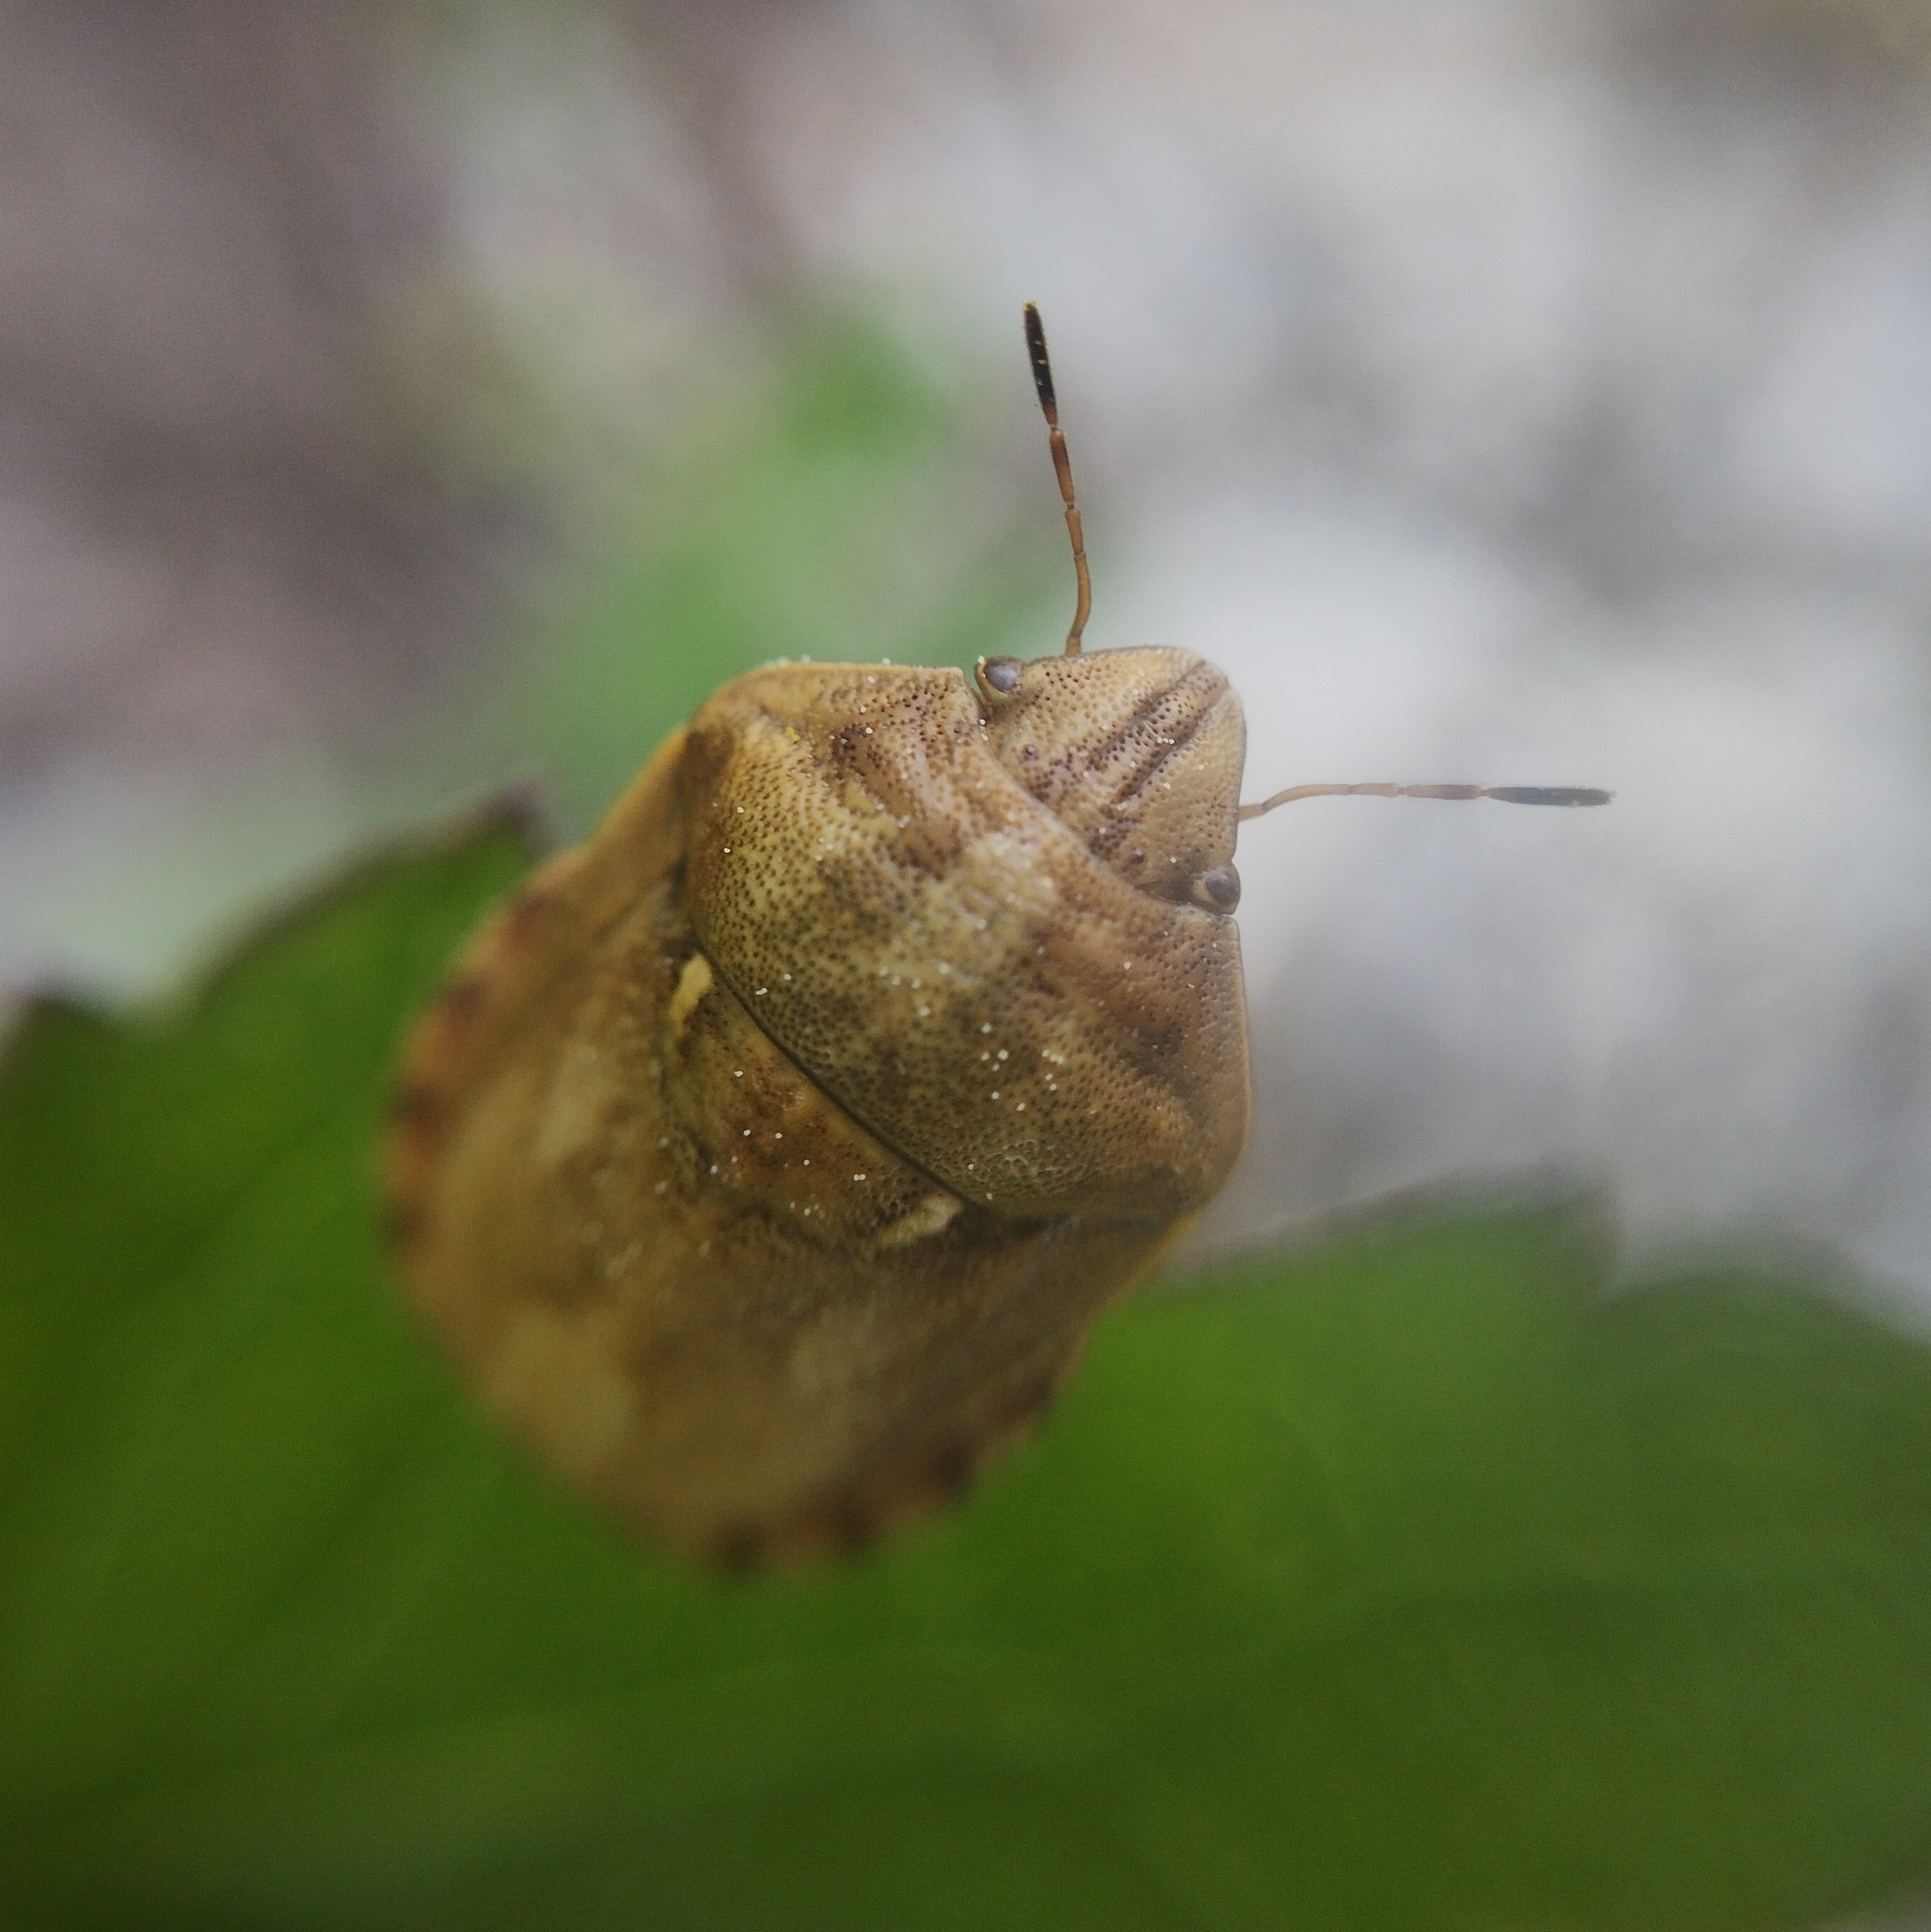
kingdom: Animalia
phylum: Arthropoda
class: Insecta
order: Hemiptera
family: Scutelleridae
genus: Eurygaster
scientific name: Eurygaster maura
